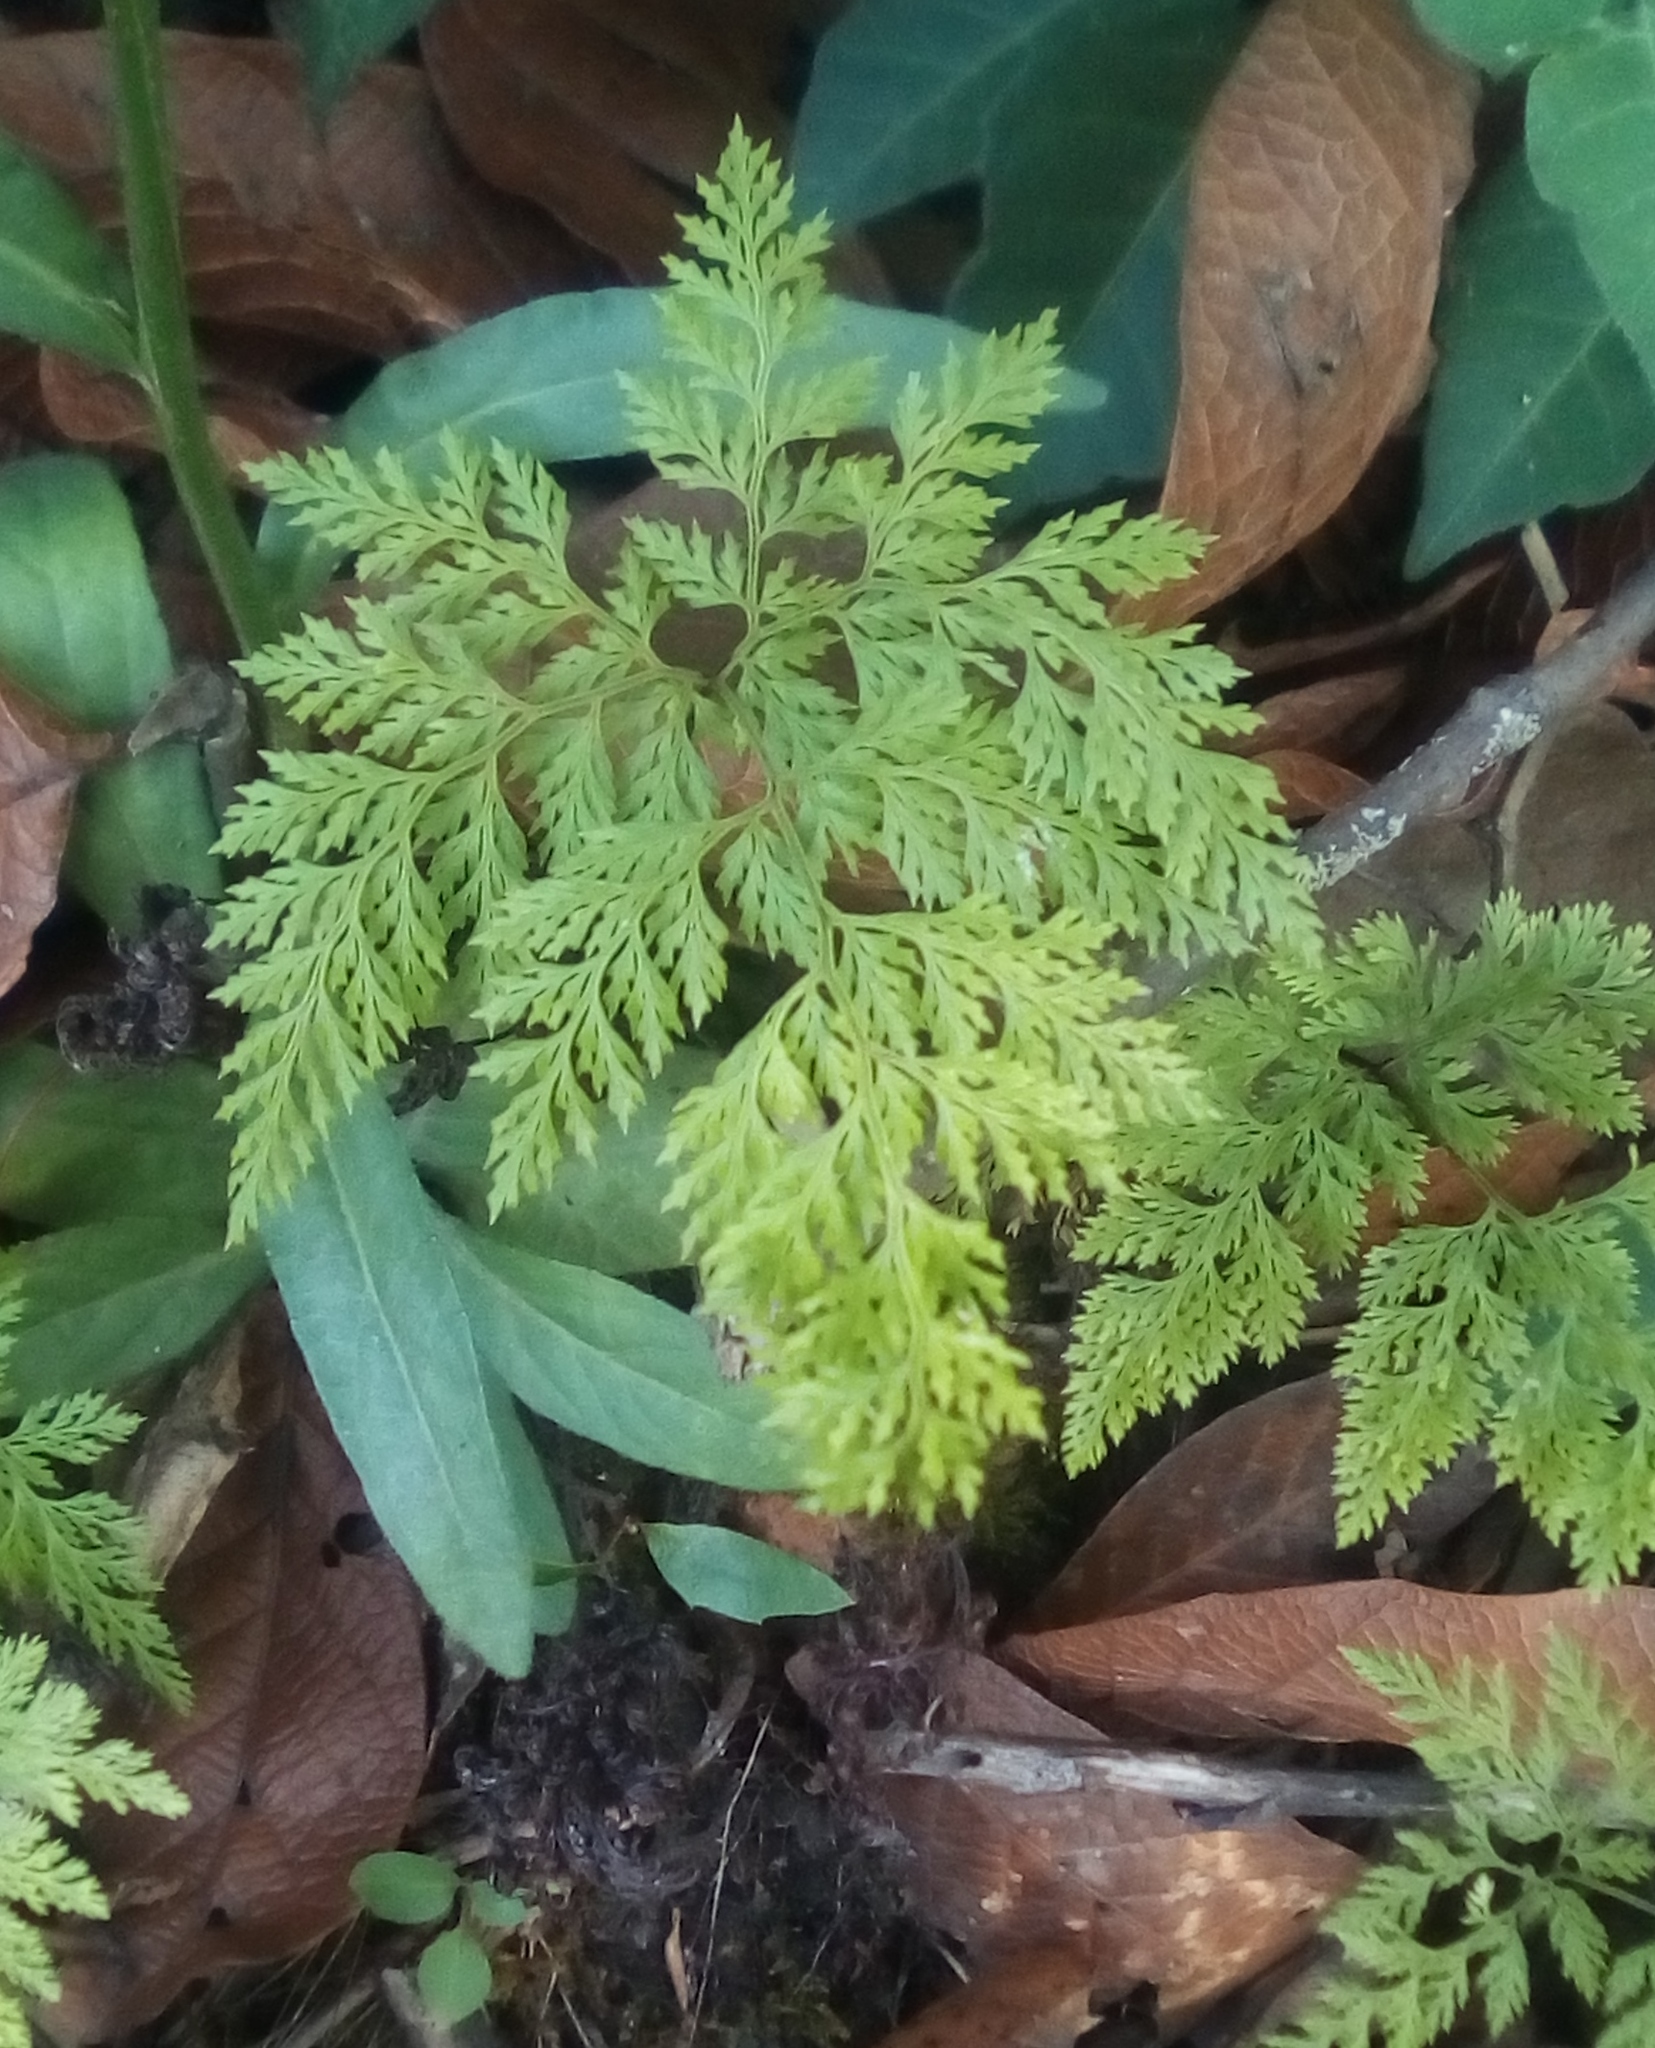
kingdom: Plantae
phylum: Tracheophyta
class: Polypodiopsida
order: Polypodiales
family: Pteridaceae
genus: Aspidotis
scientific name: Aspidotis meifolia
